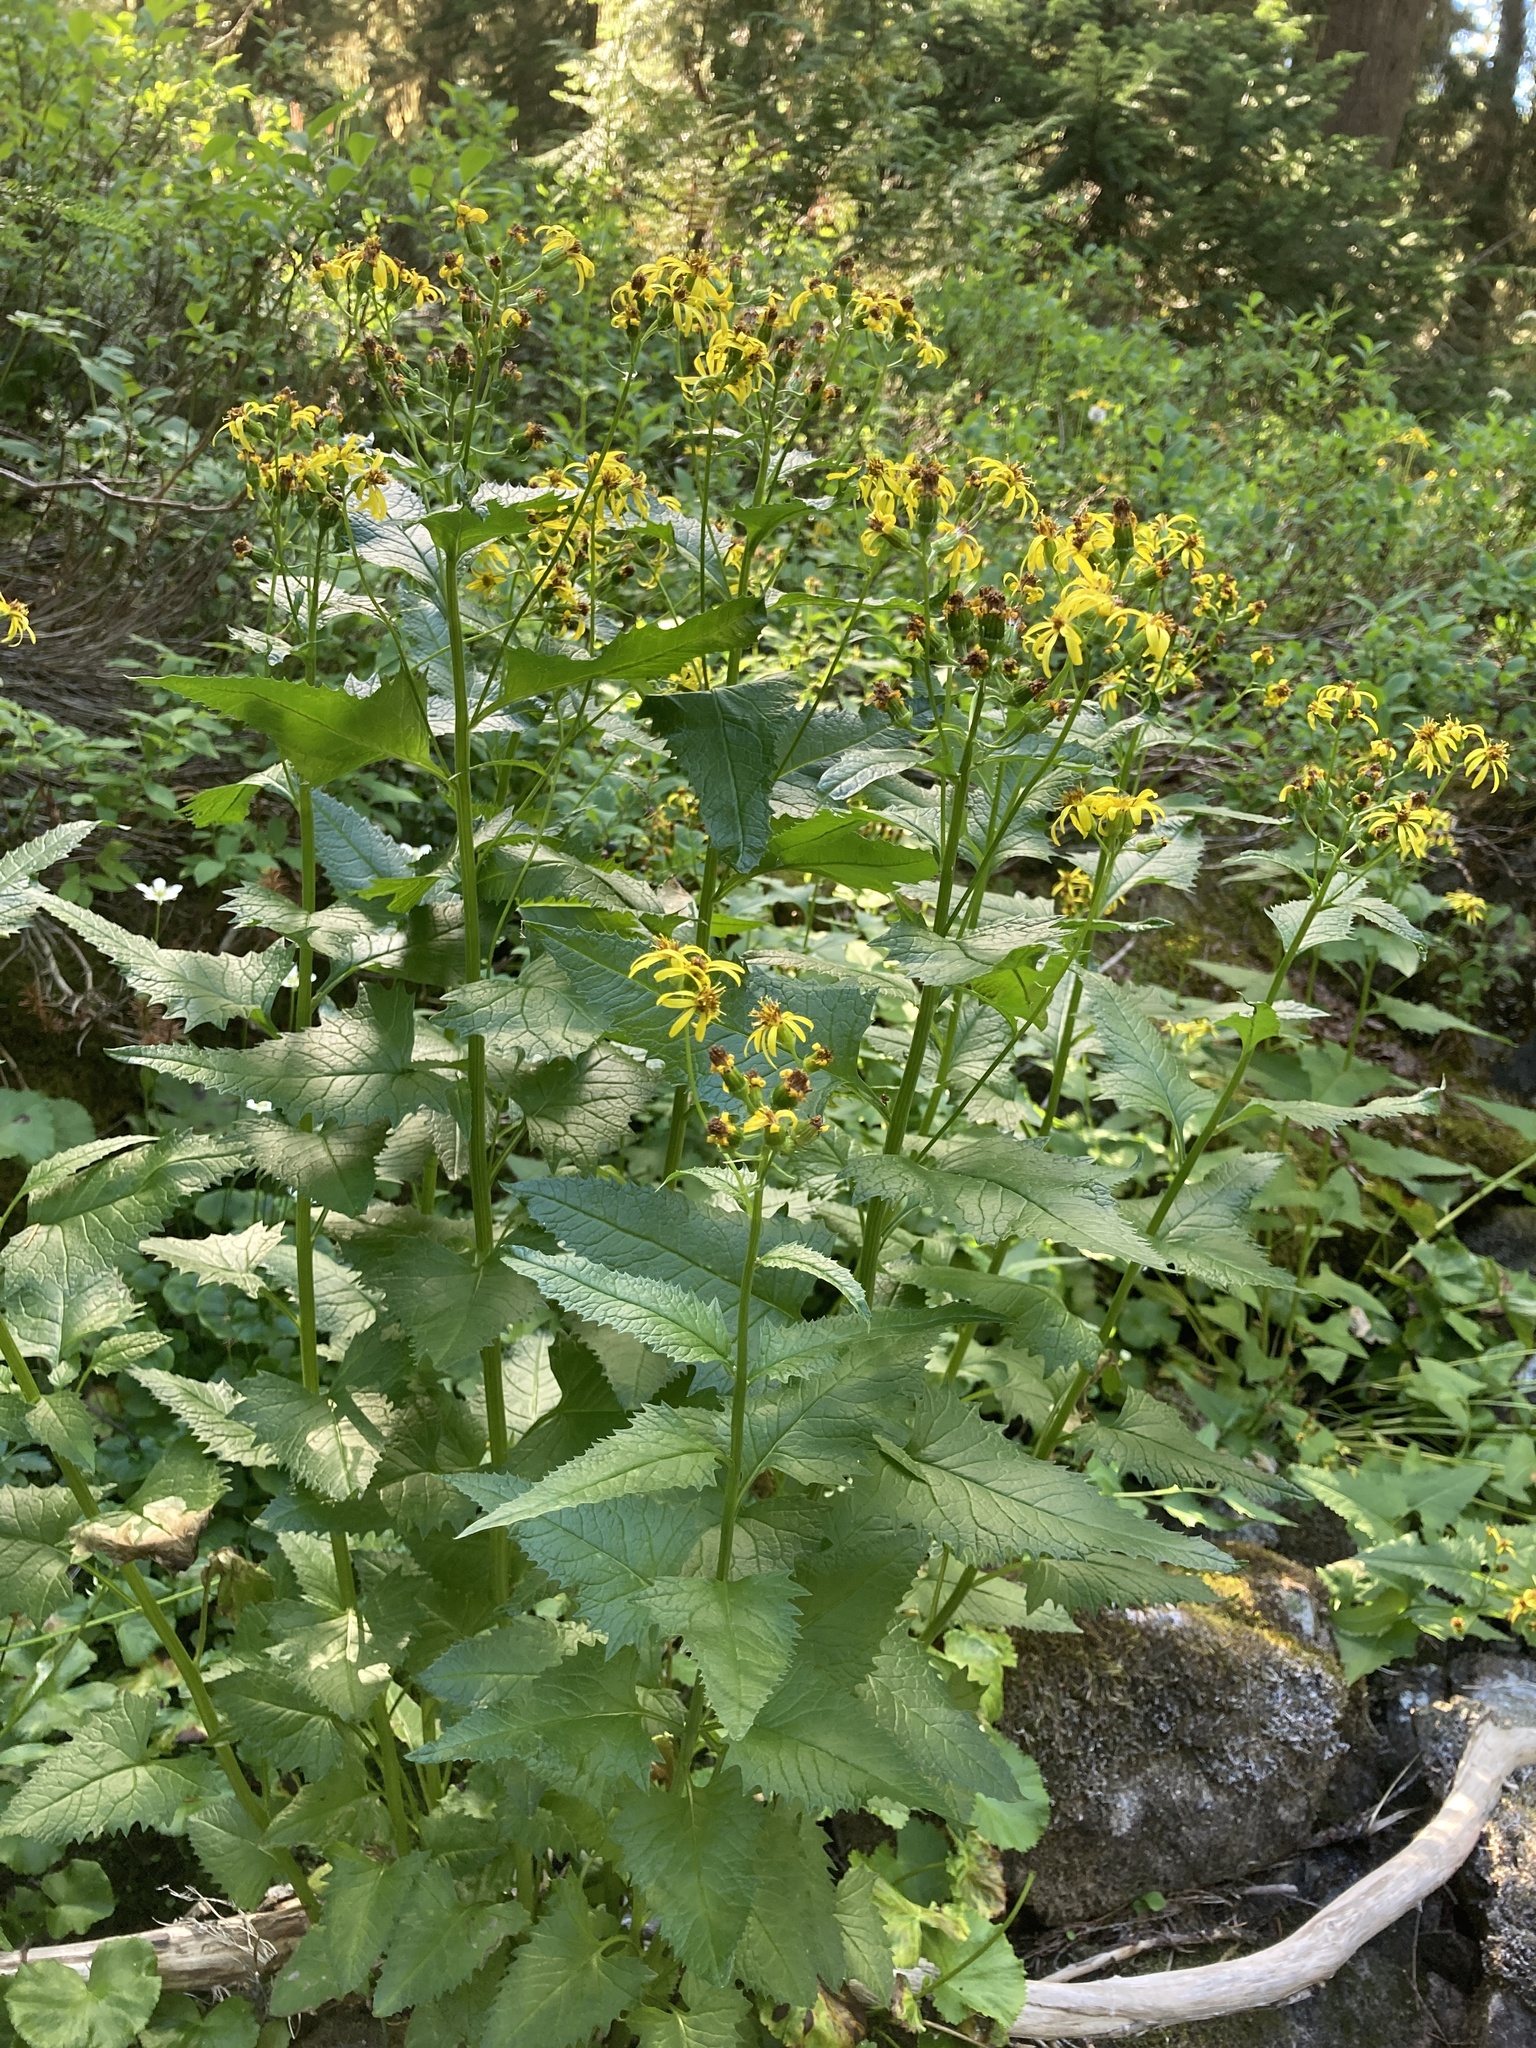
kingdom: Plantae
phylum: Tracheophyta
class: Magnoliopsida
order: Asterales
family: Asteraceae
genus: Senecio
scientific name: Senecio triangularis
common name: Arrowleaf butterweed
